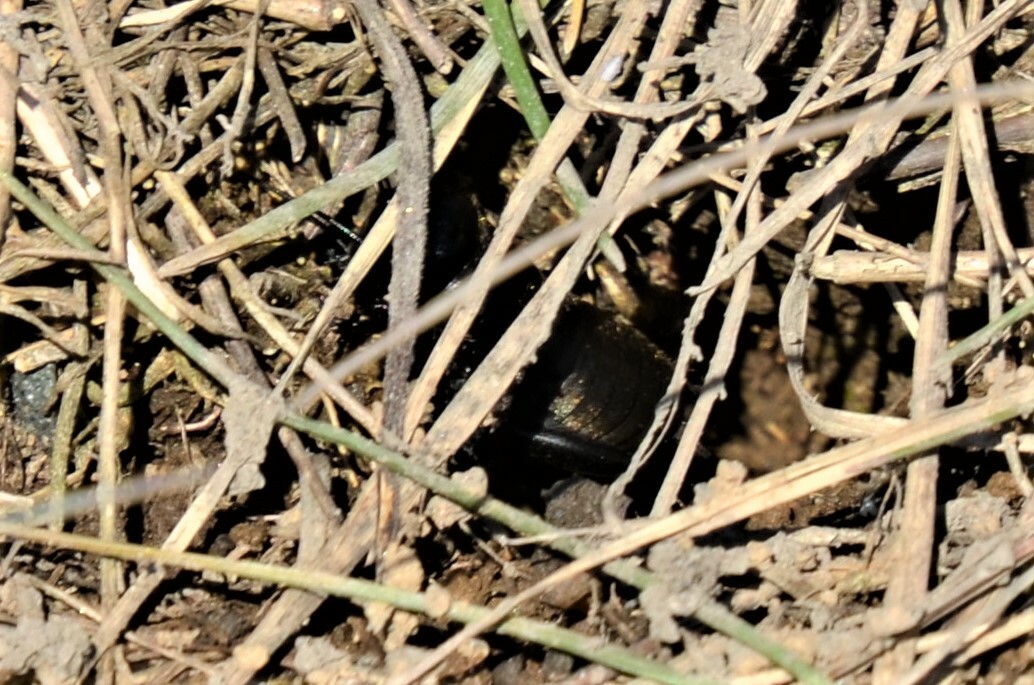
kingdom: Animalia
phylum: Arthropoda
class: Insecta
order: Orthoptera
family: Gryllidae
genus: Gryllus
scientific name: Gryllus campestris
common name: Field cricket
